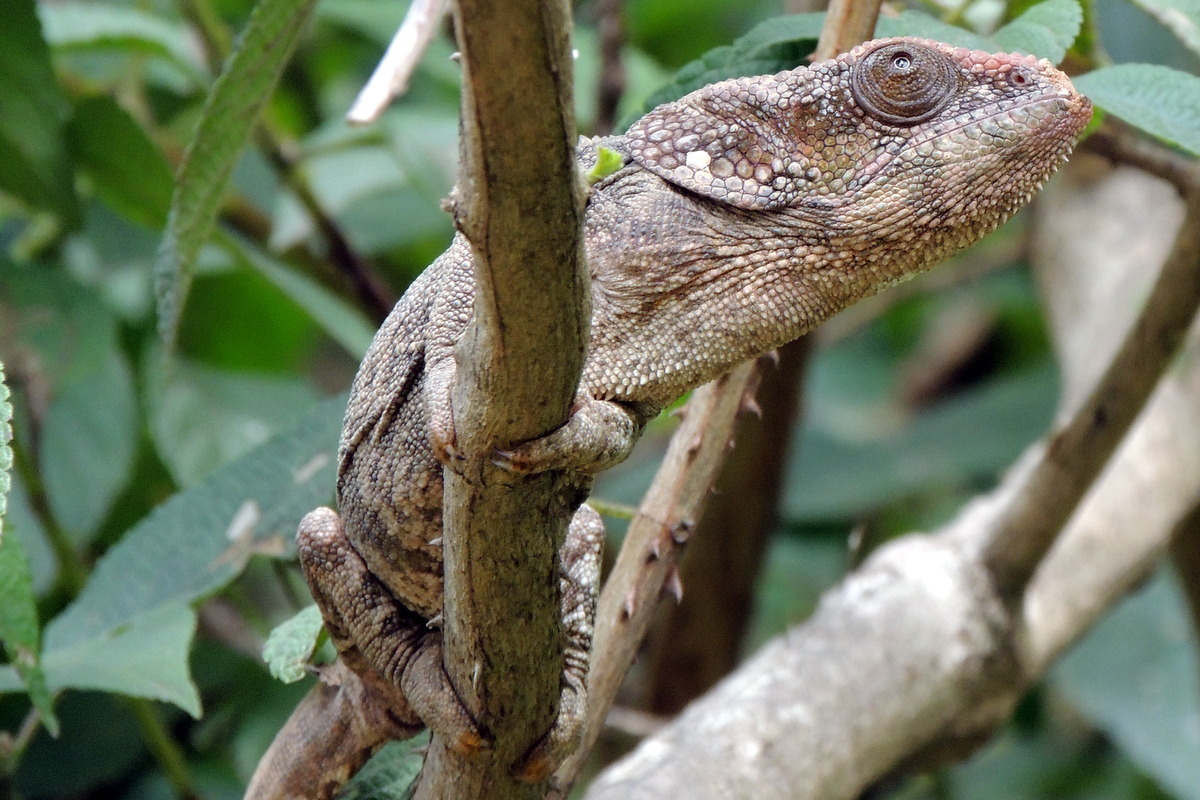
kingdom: Animalia
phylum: Chordata
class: Squamata
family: Chamaeleonidae
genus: Calumma
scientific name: Calumma brevicorne
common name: Short-horned chameleon
